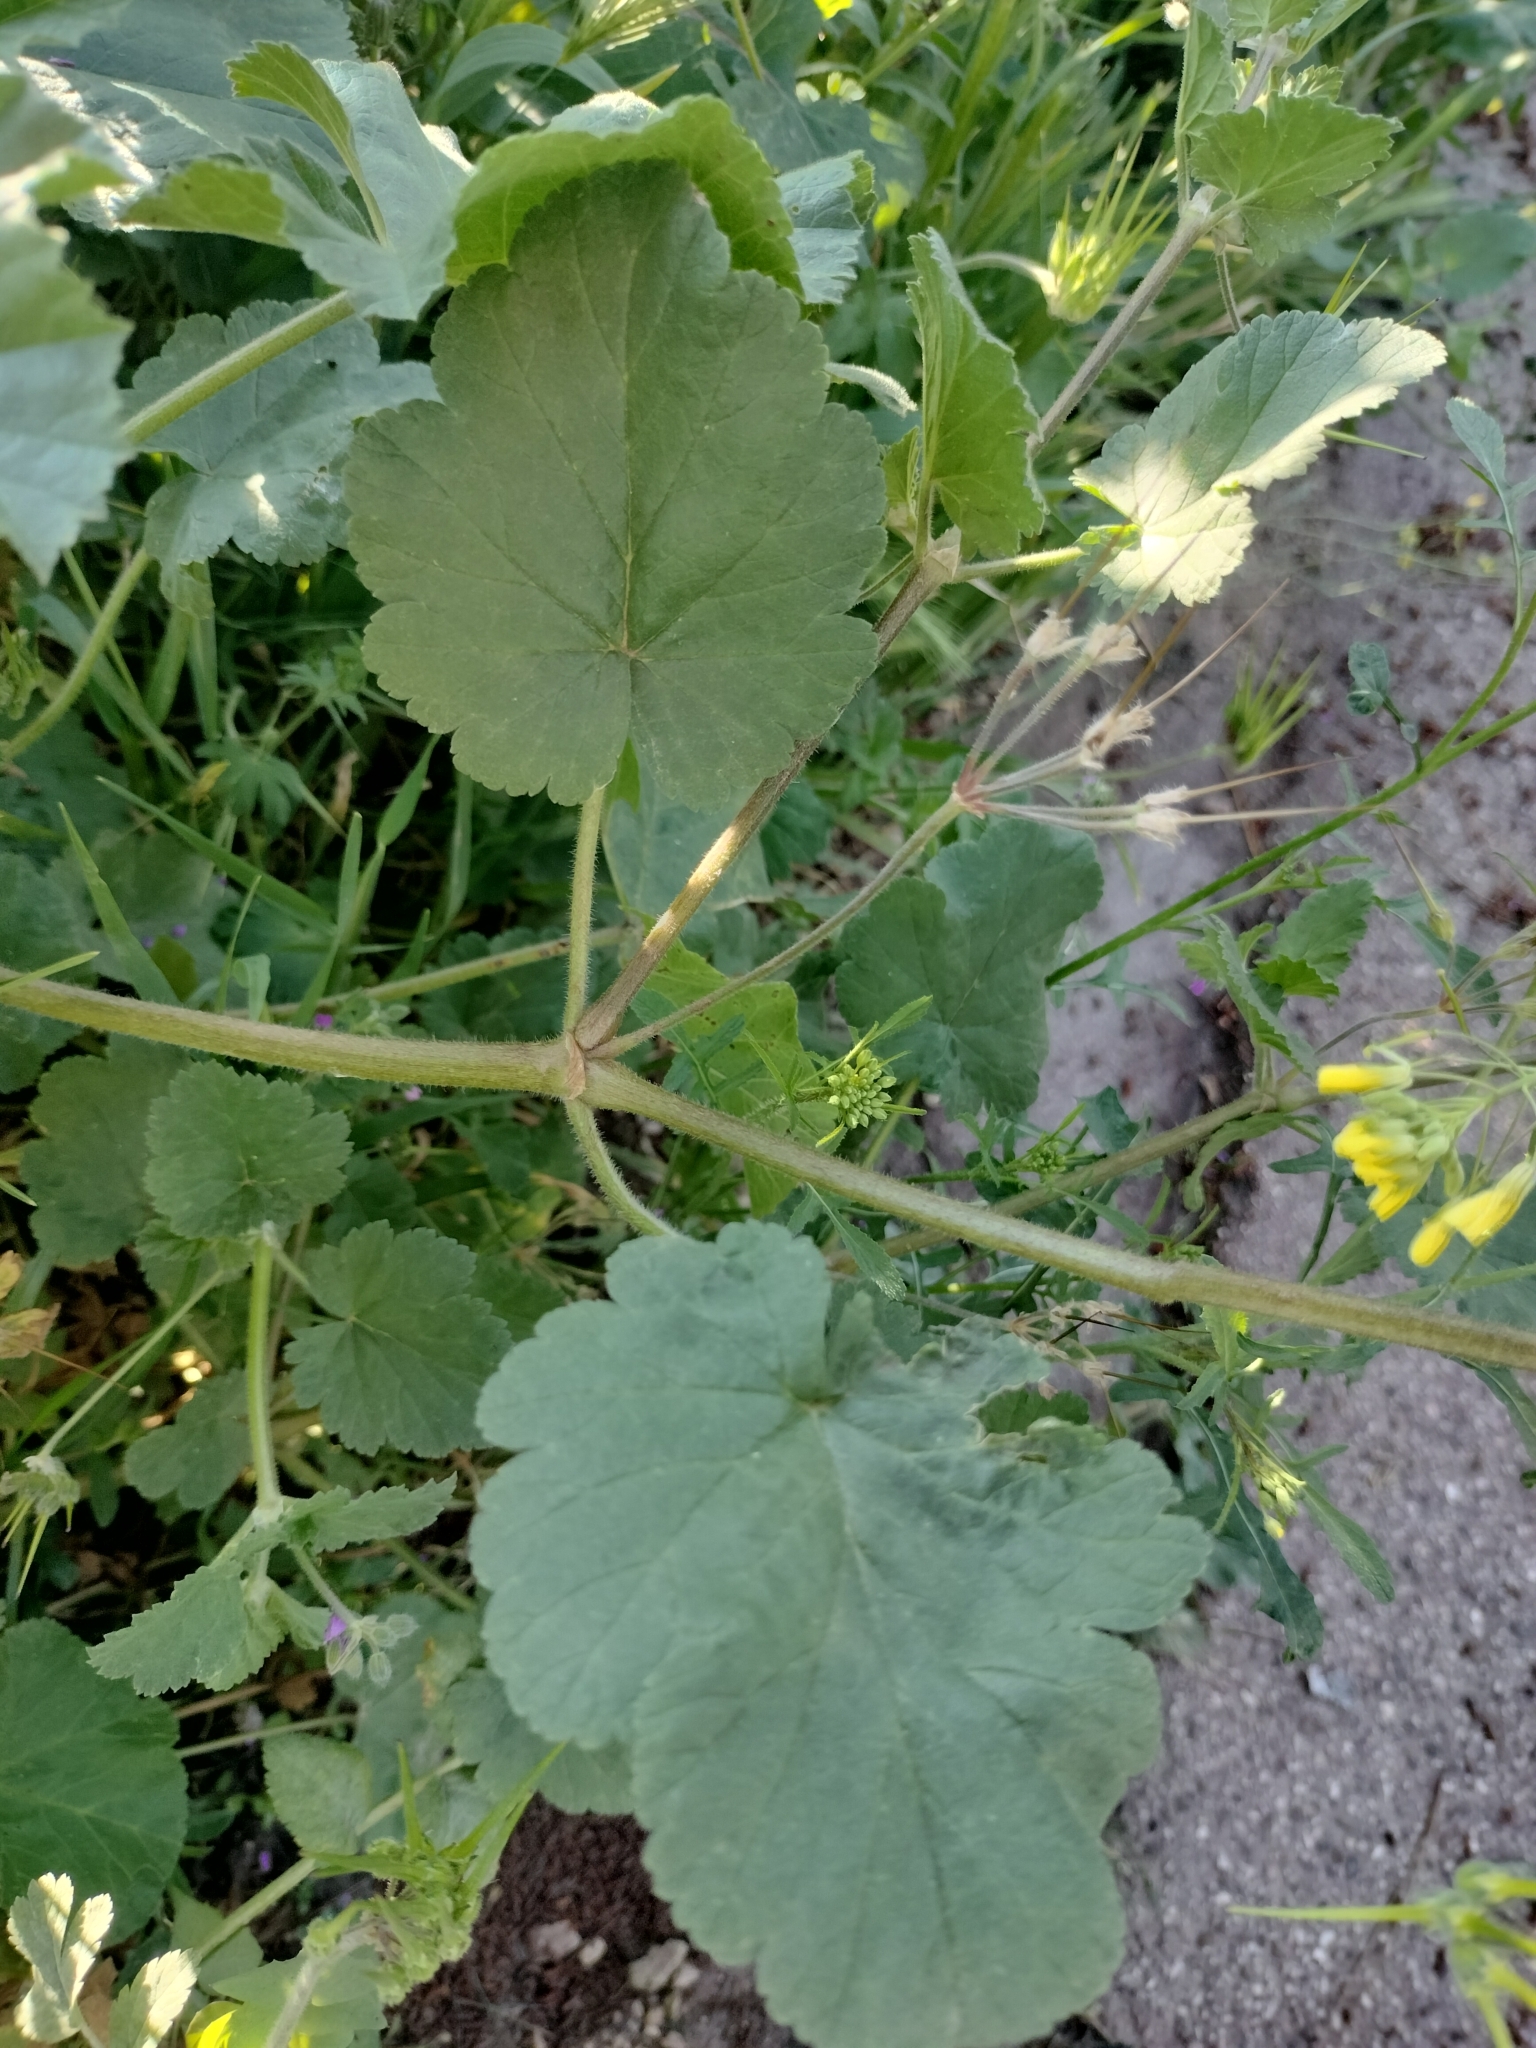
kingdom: Plantae
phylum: Tracheophyta
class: Magnoliopsida
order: Geraniales
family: Geraniaceae
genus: Erodium
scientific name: Erodium malacoides
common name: Soft stork's-bill
